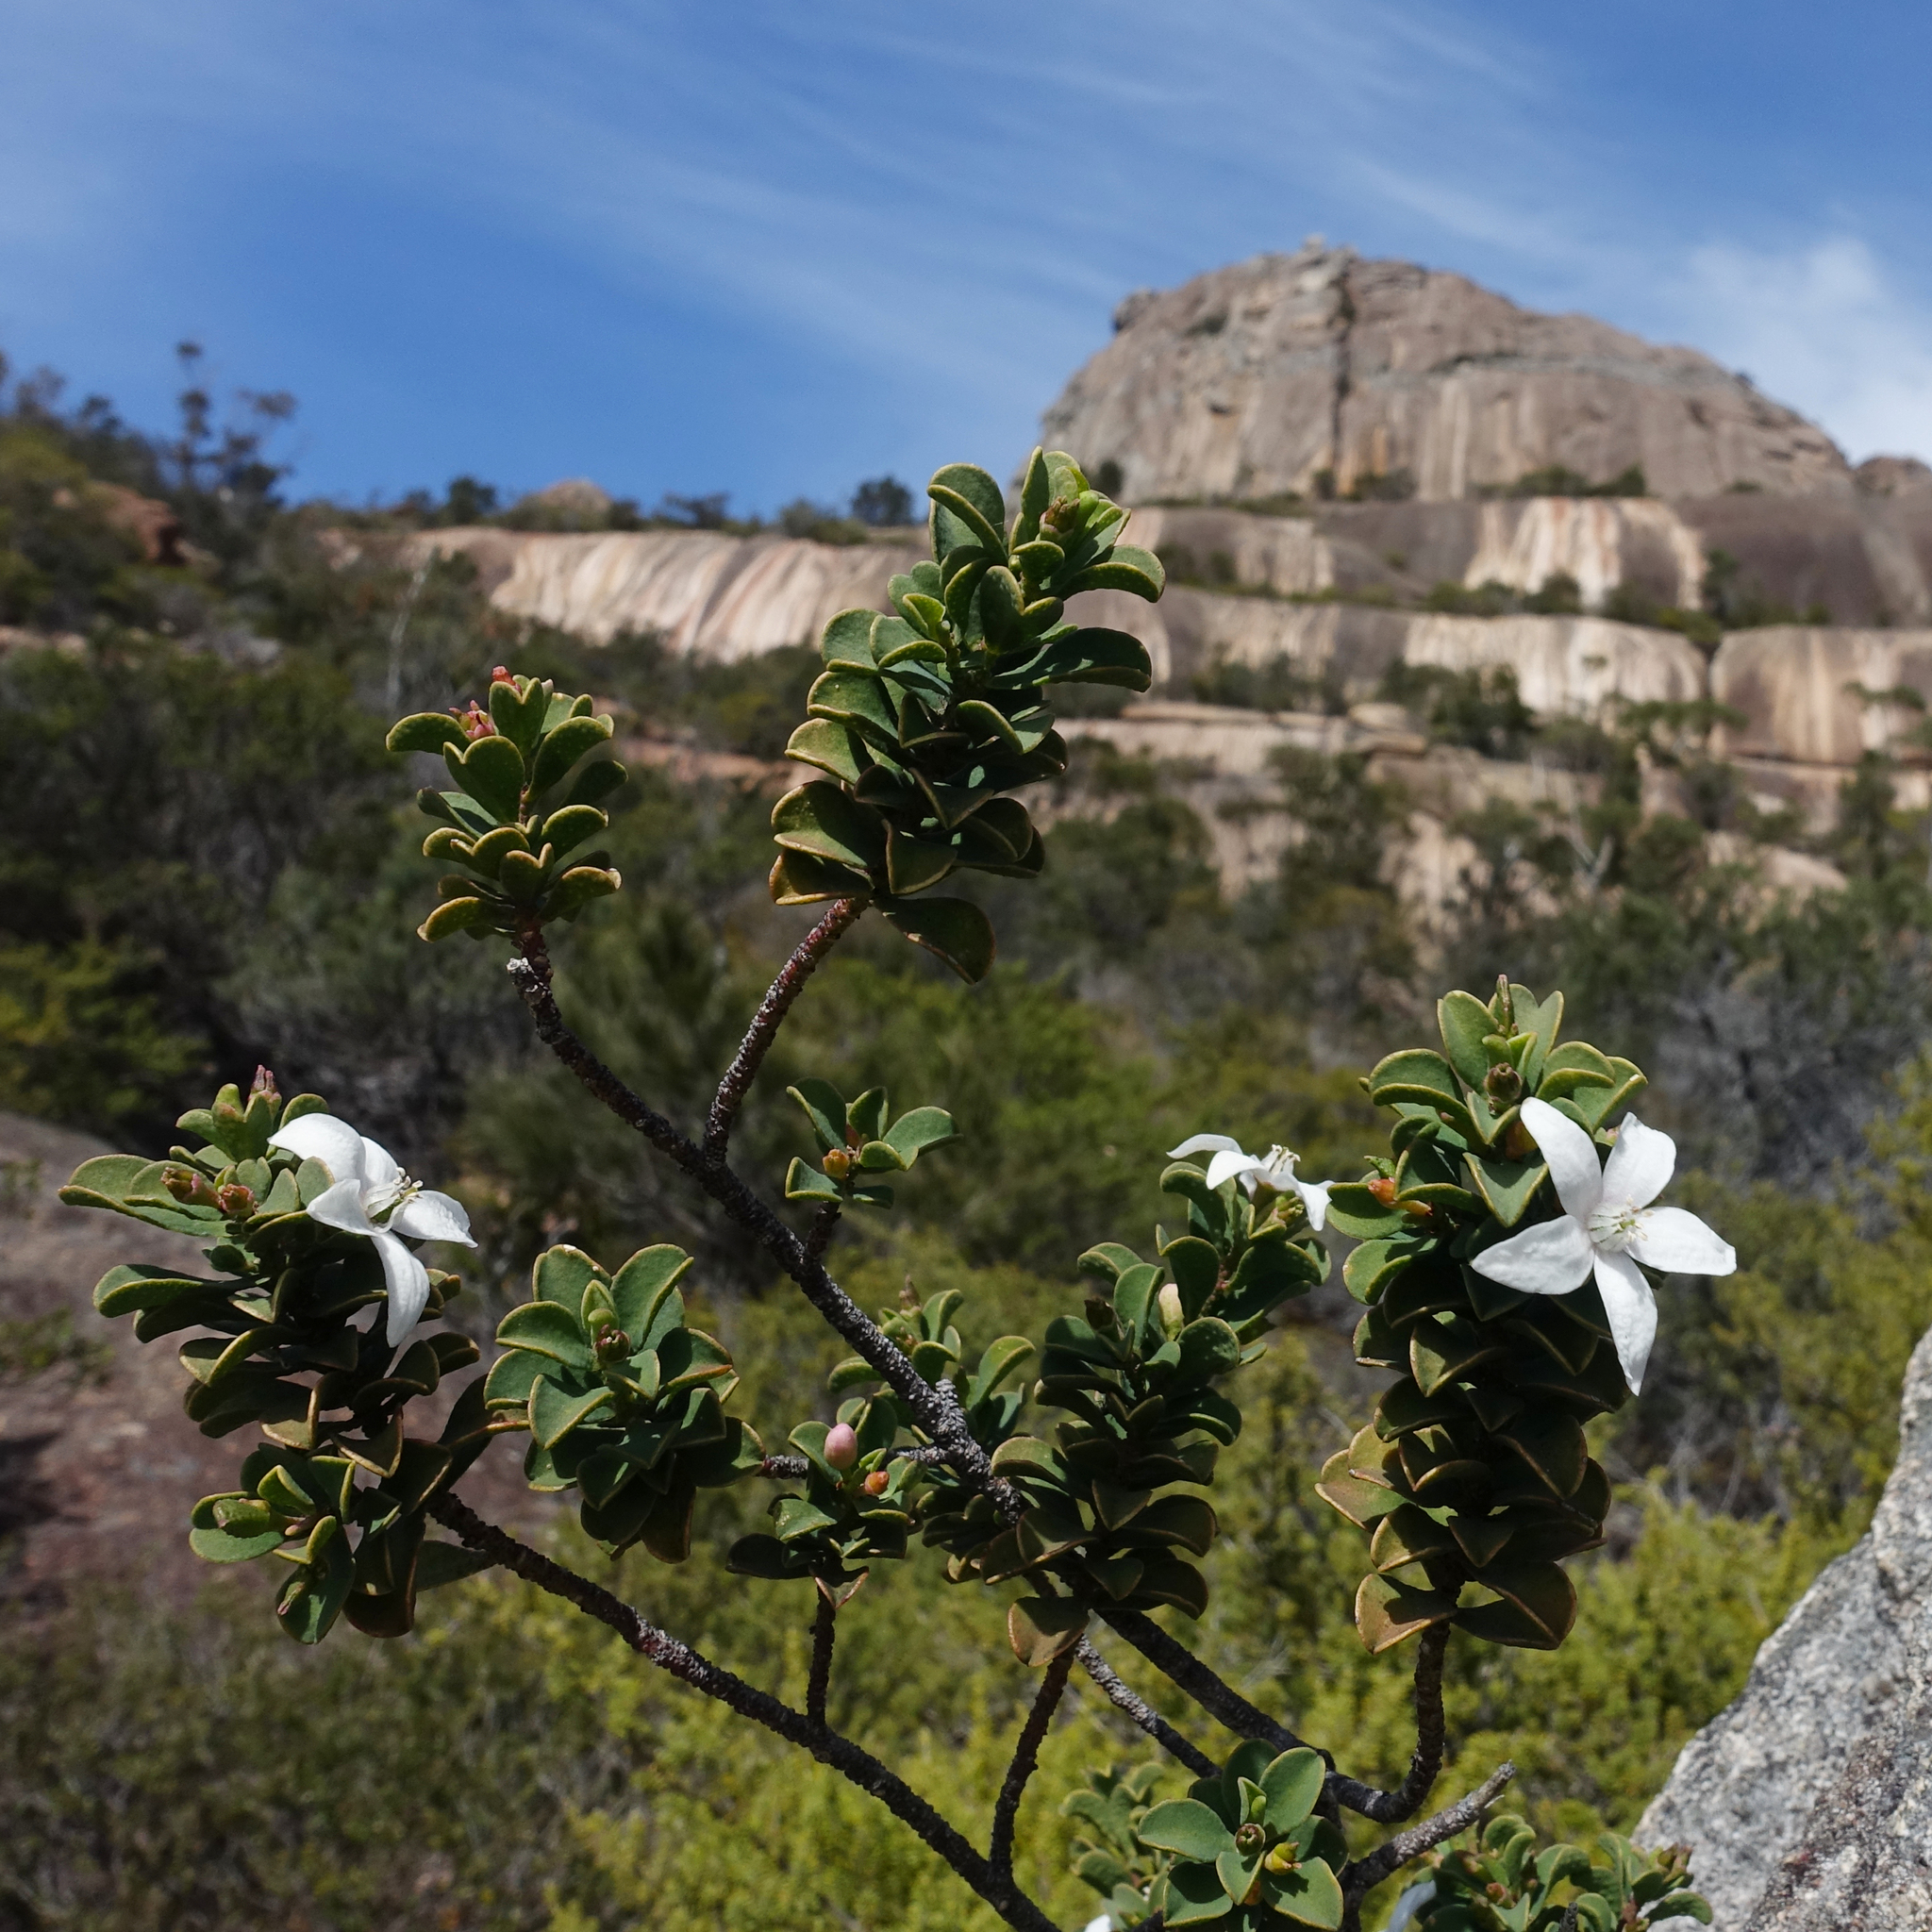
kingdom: Plantae
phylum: Tracheophyta
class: Magnoliopsida
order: Sapindales
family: Rutaceae
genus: Philotheca
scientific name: Philotheca freyciana
